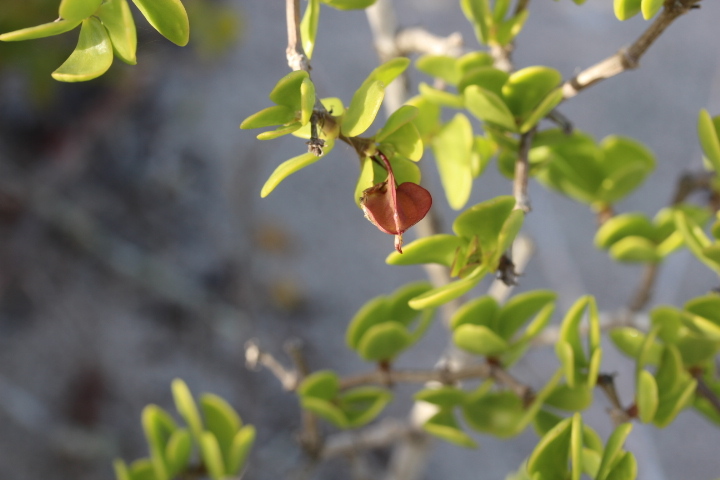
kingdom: Plantae
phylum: Tracheophyta
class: Magnoliopsida
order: Zygophyllales
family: Zygophyllaceae
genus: Roepera
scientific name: Roepera morgsana
